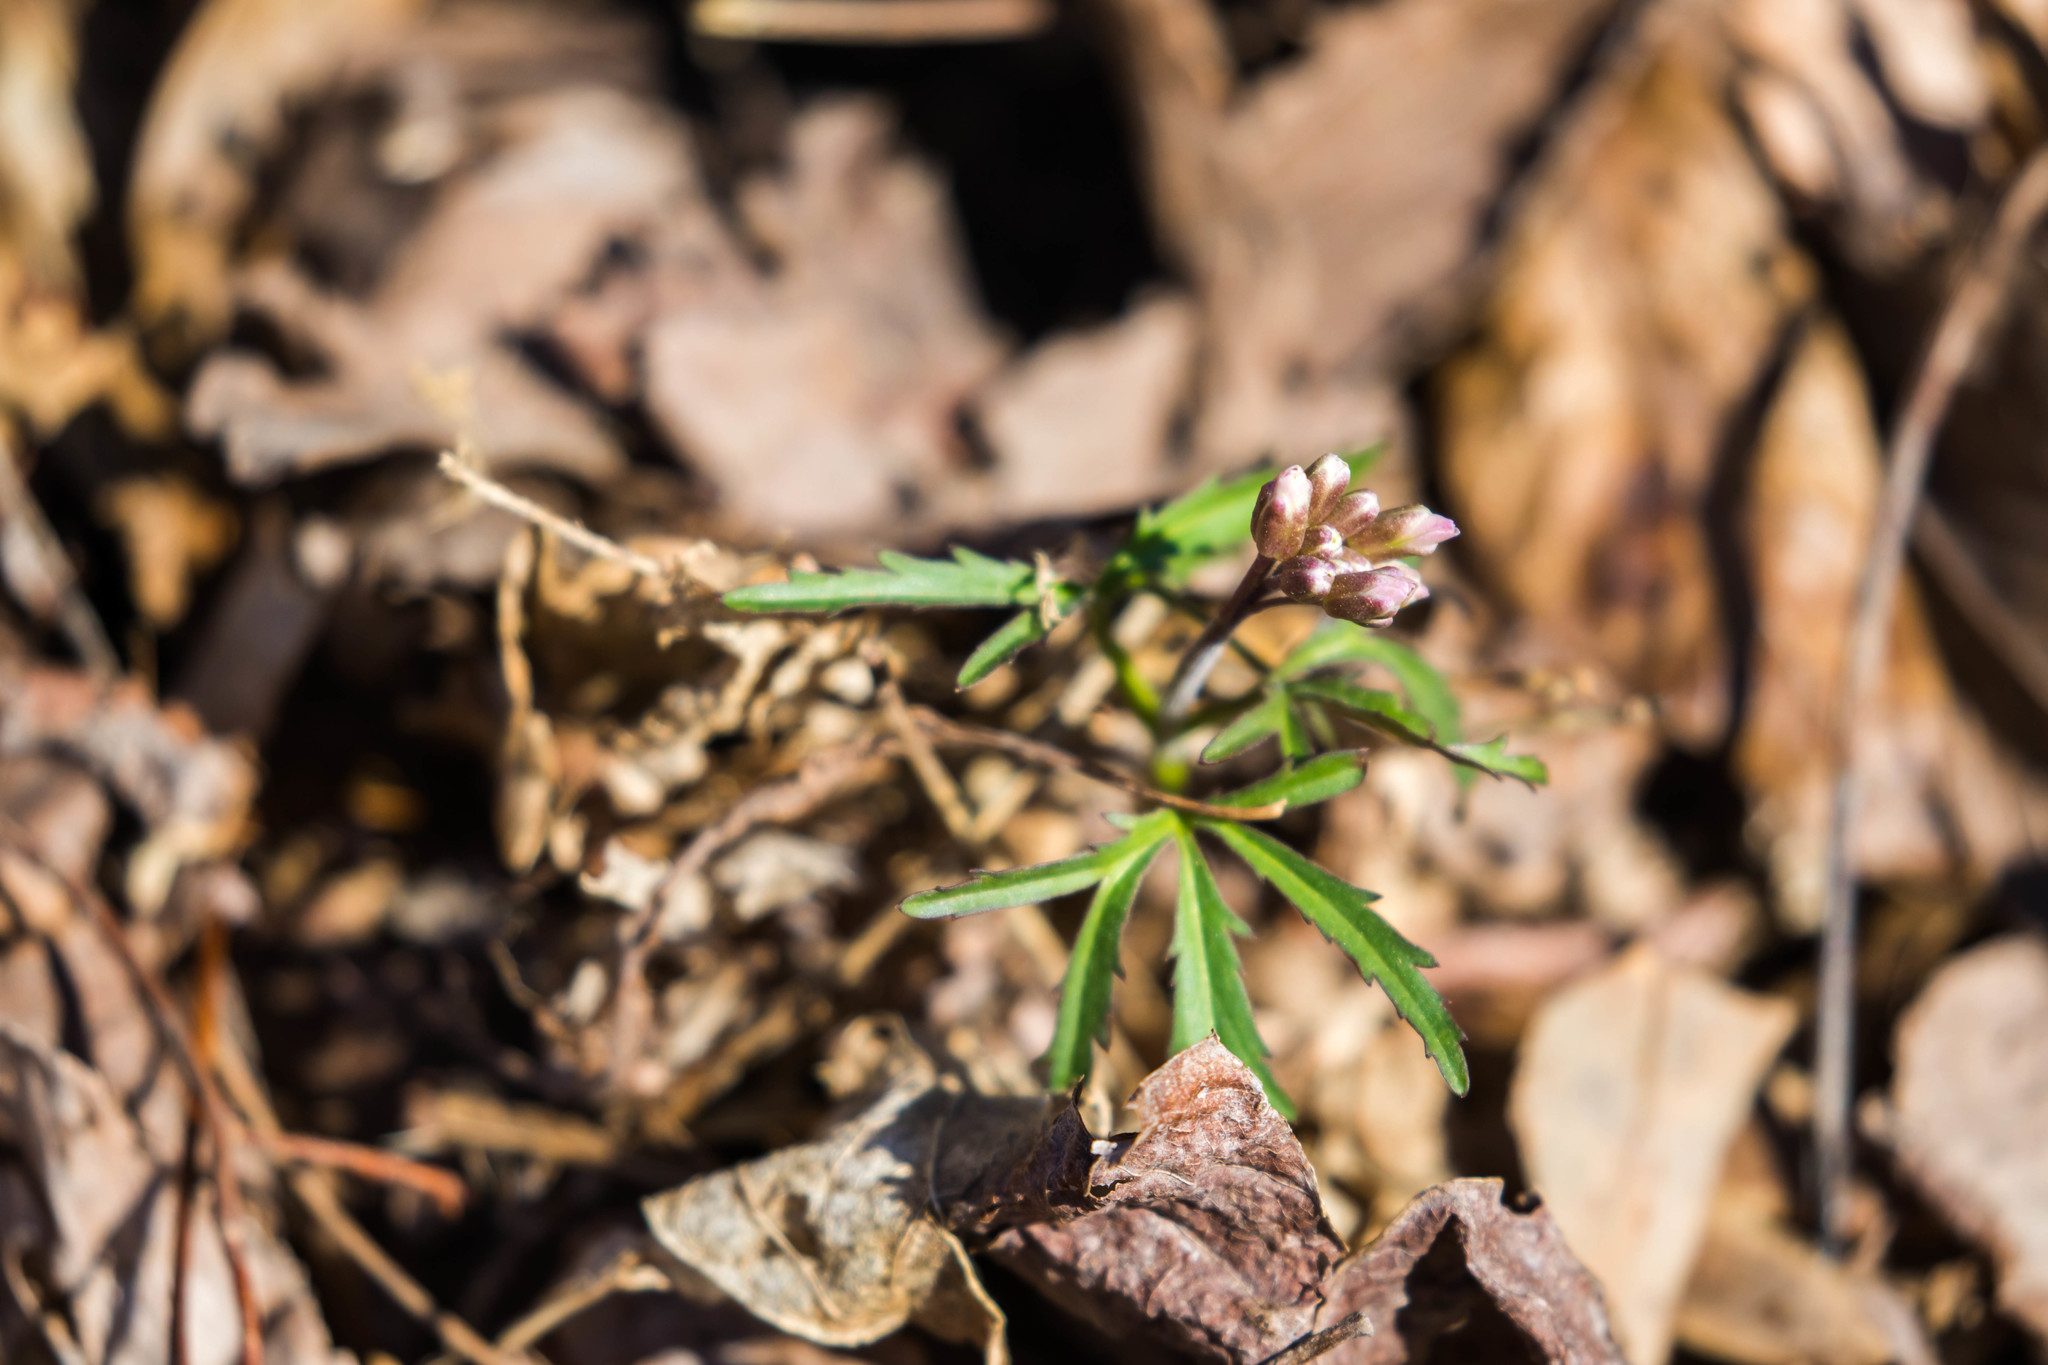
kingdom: Plantae
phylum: Tracheophyta
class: Magnoliopsida
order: Brassicales
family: Brassicaceae
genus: Cardamine
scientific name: Cardamine concatenata
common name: Cut-leaf toothcup
